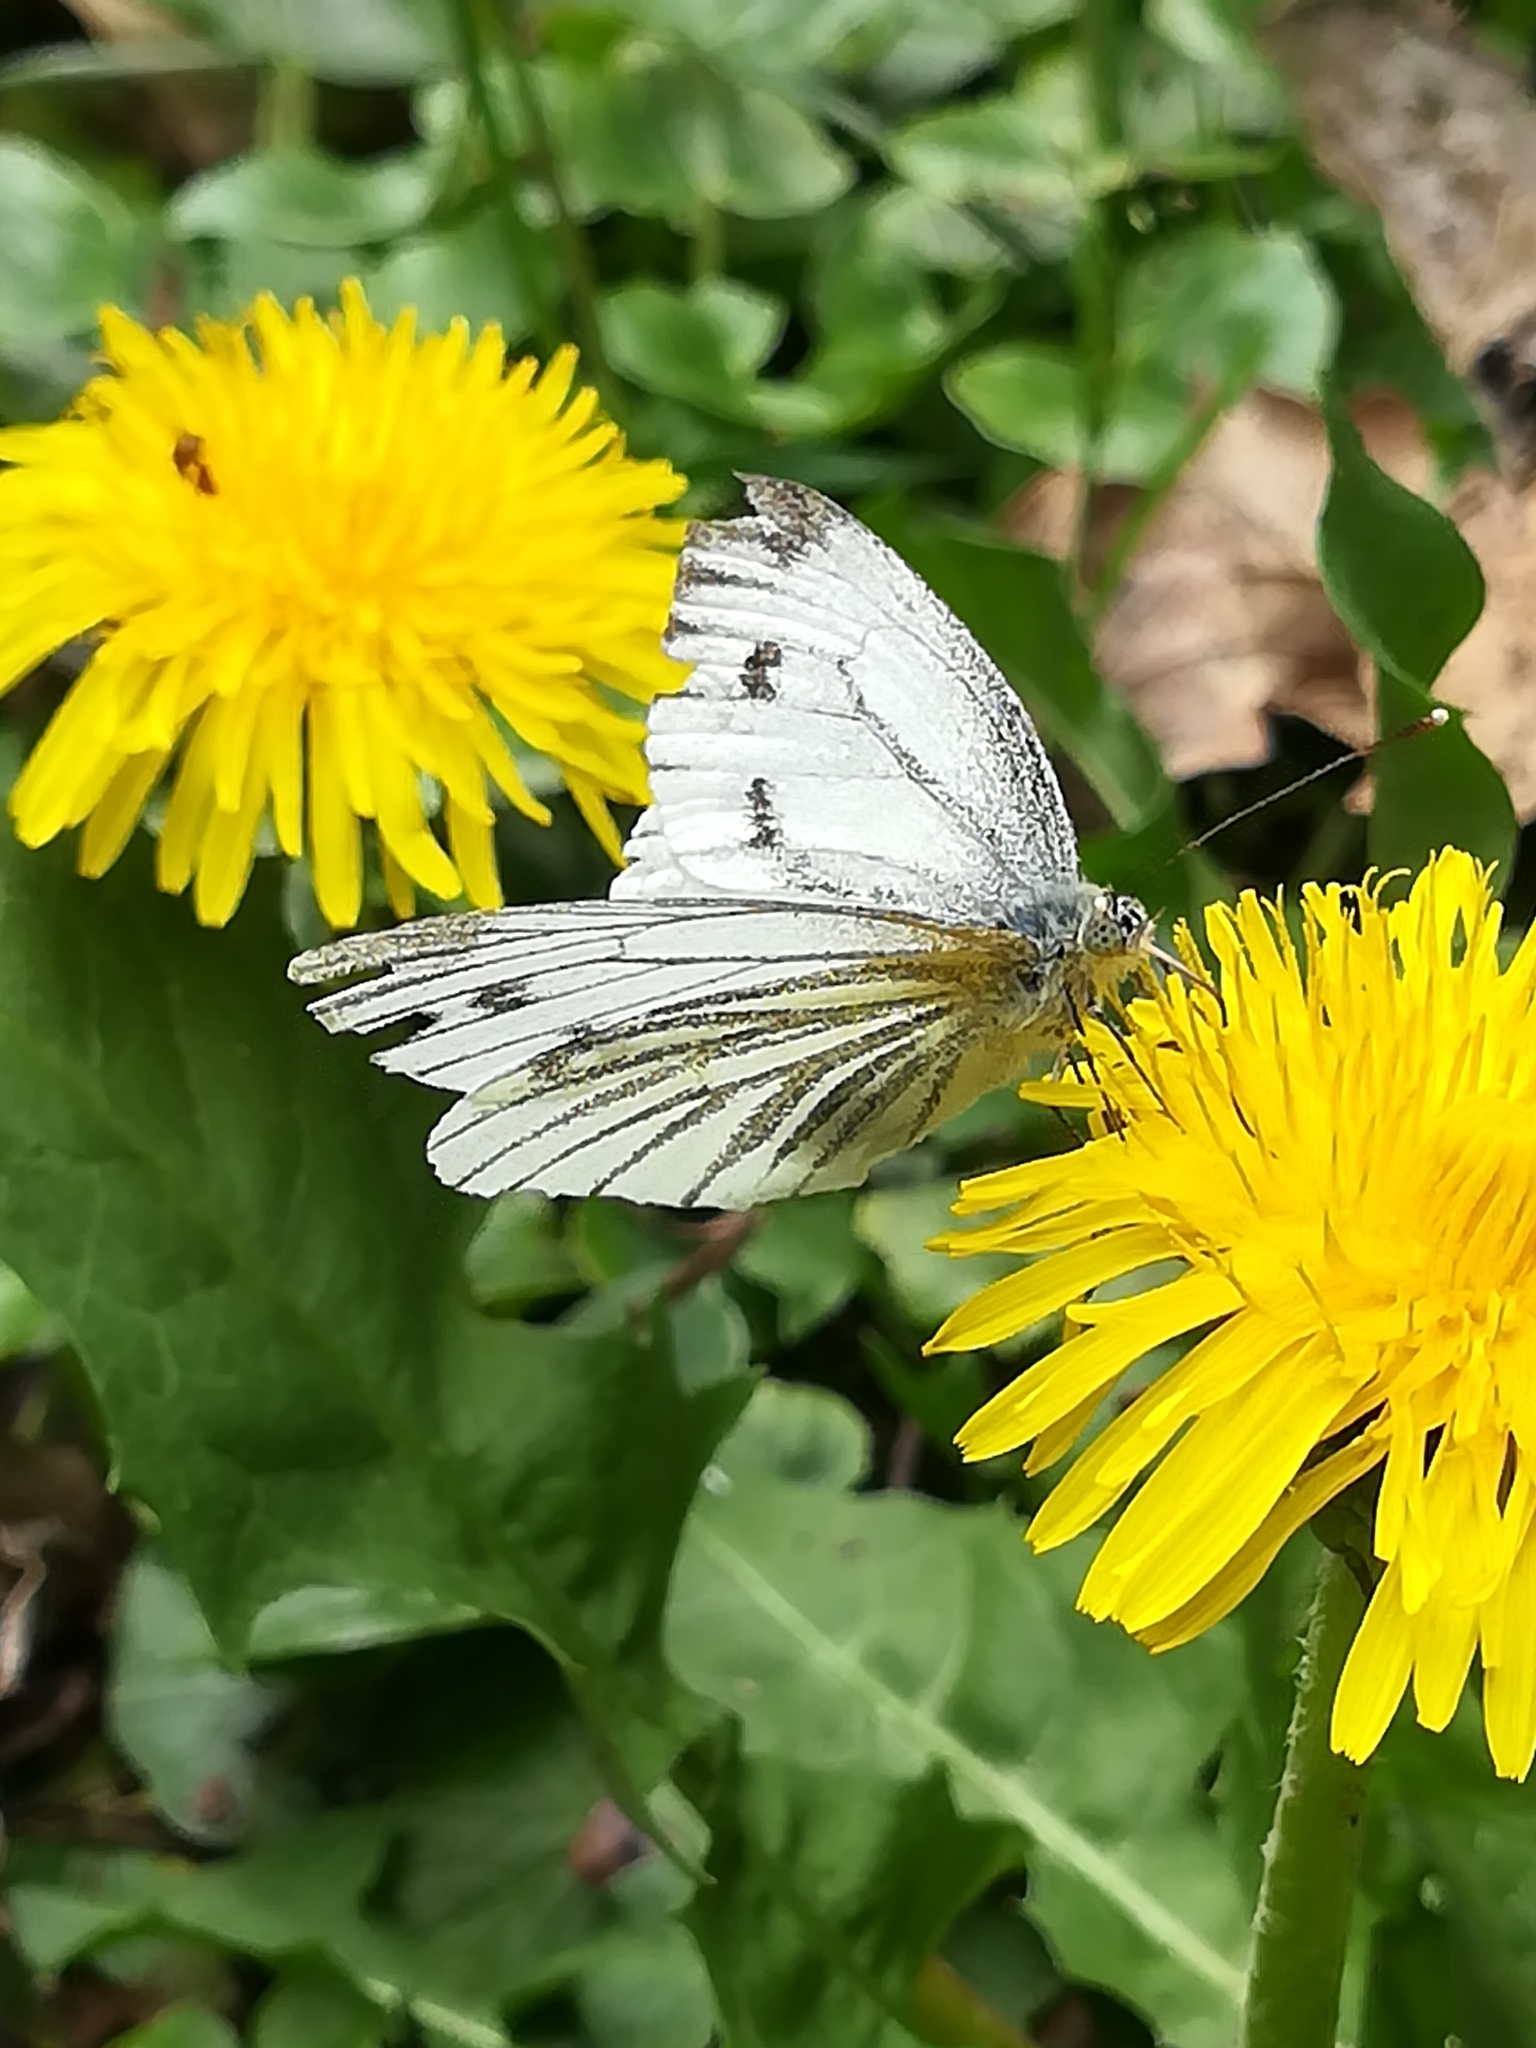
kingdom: Animalia
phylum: Arthropoda
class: Insecta
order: Lepidoptera
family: Pieridae
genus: Pieris
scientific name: Pieris napi
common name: Green-veined white
